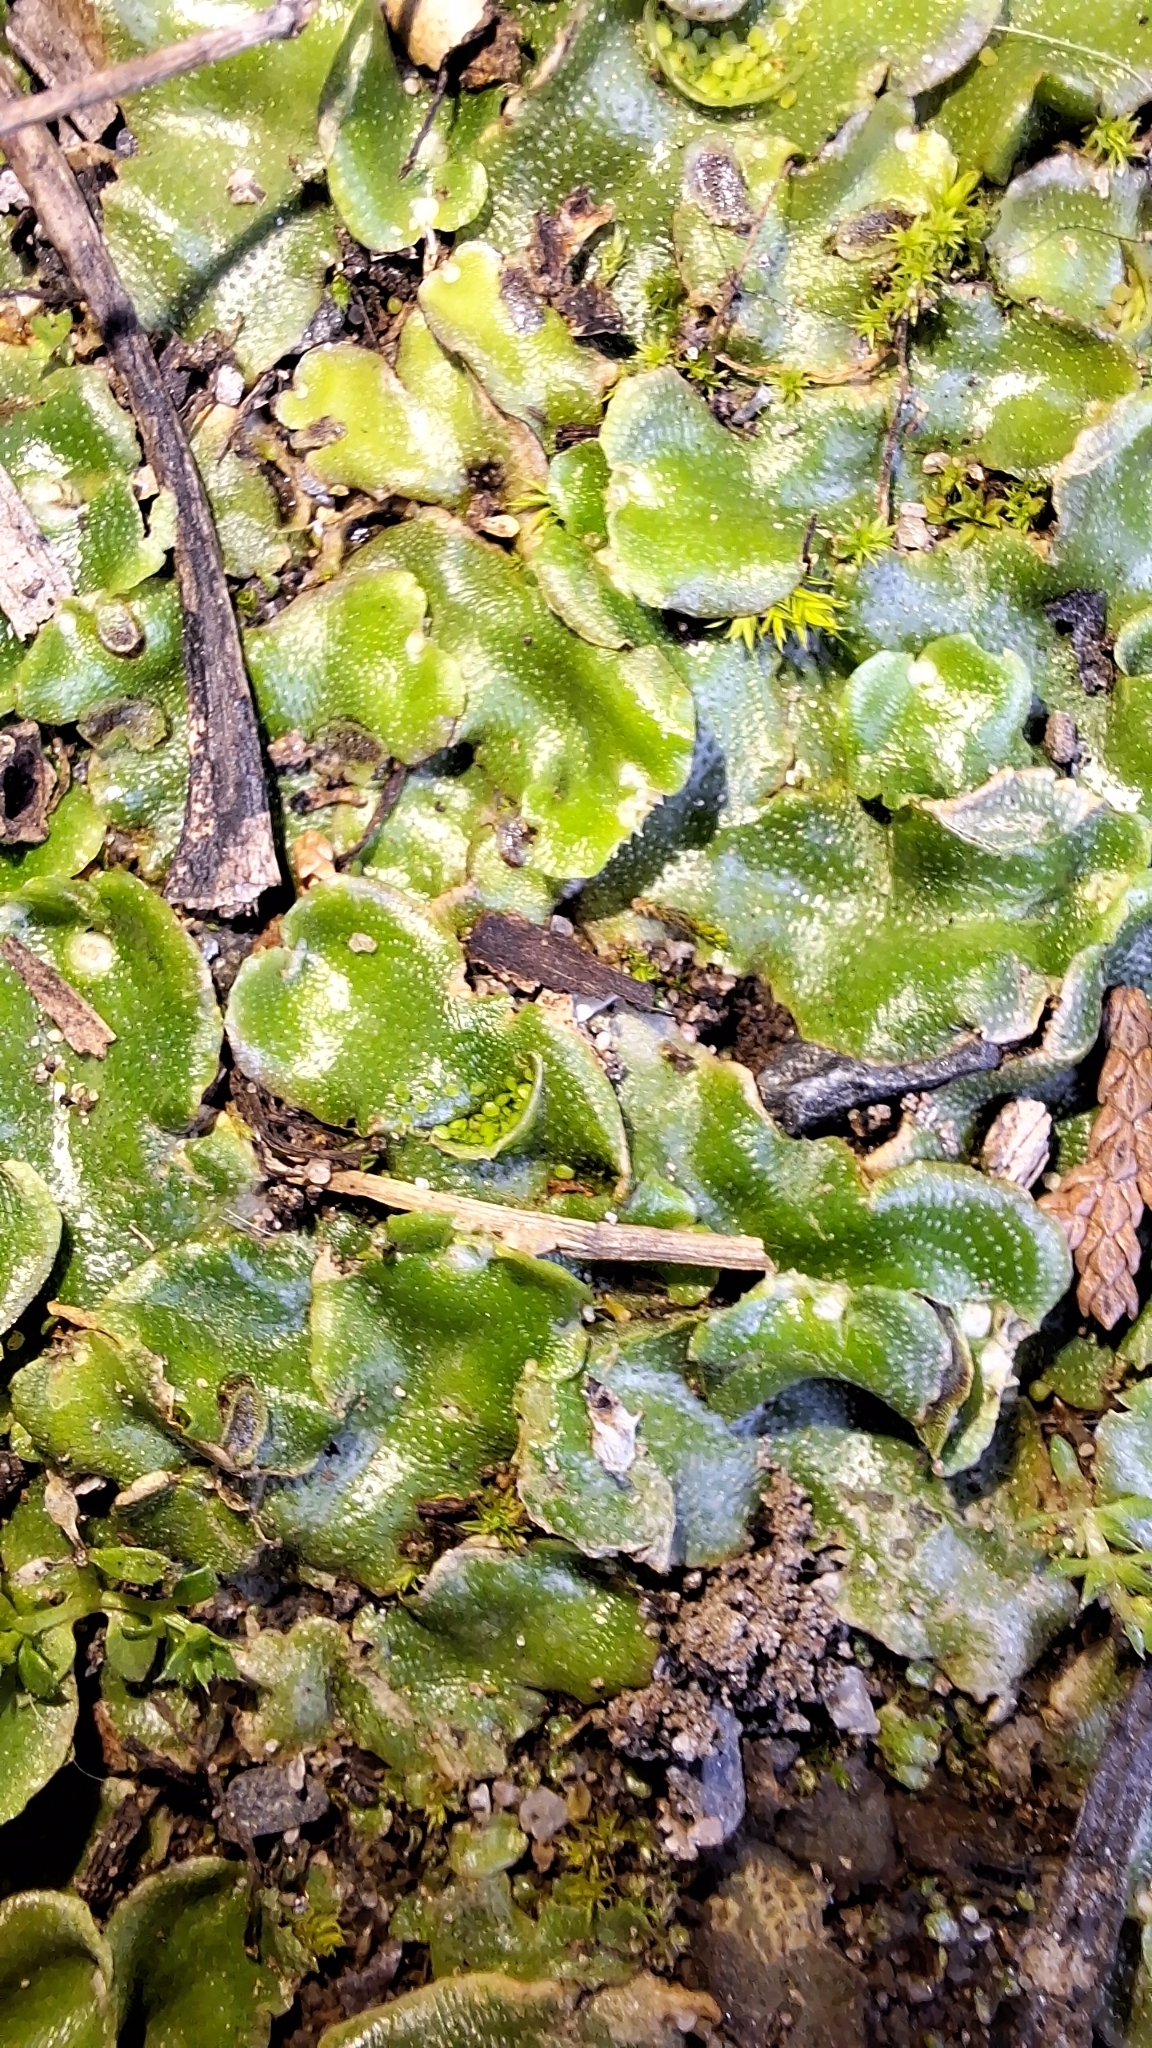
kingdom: Plantae
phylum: Marchantiophyta
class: Marchantiopsida
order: Lunulariales
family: Lunulariaceae
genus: Lunularia
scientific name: Lunularia cruciata
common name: Crescent-cup liverwort
